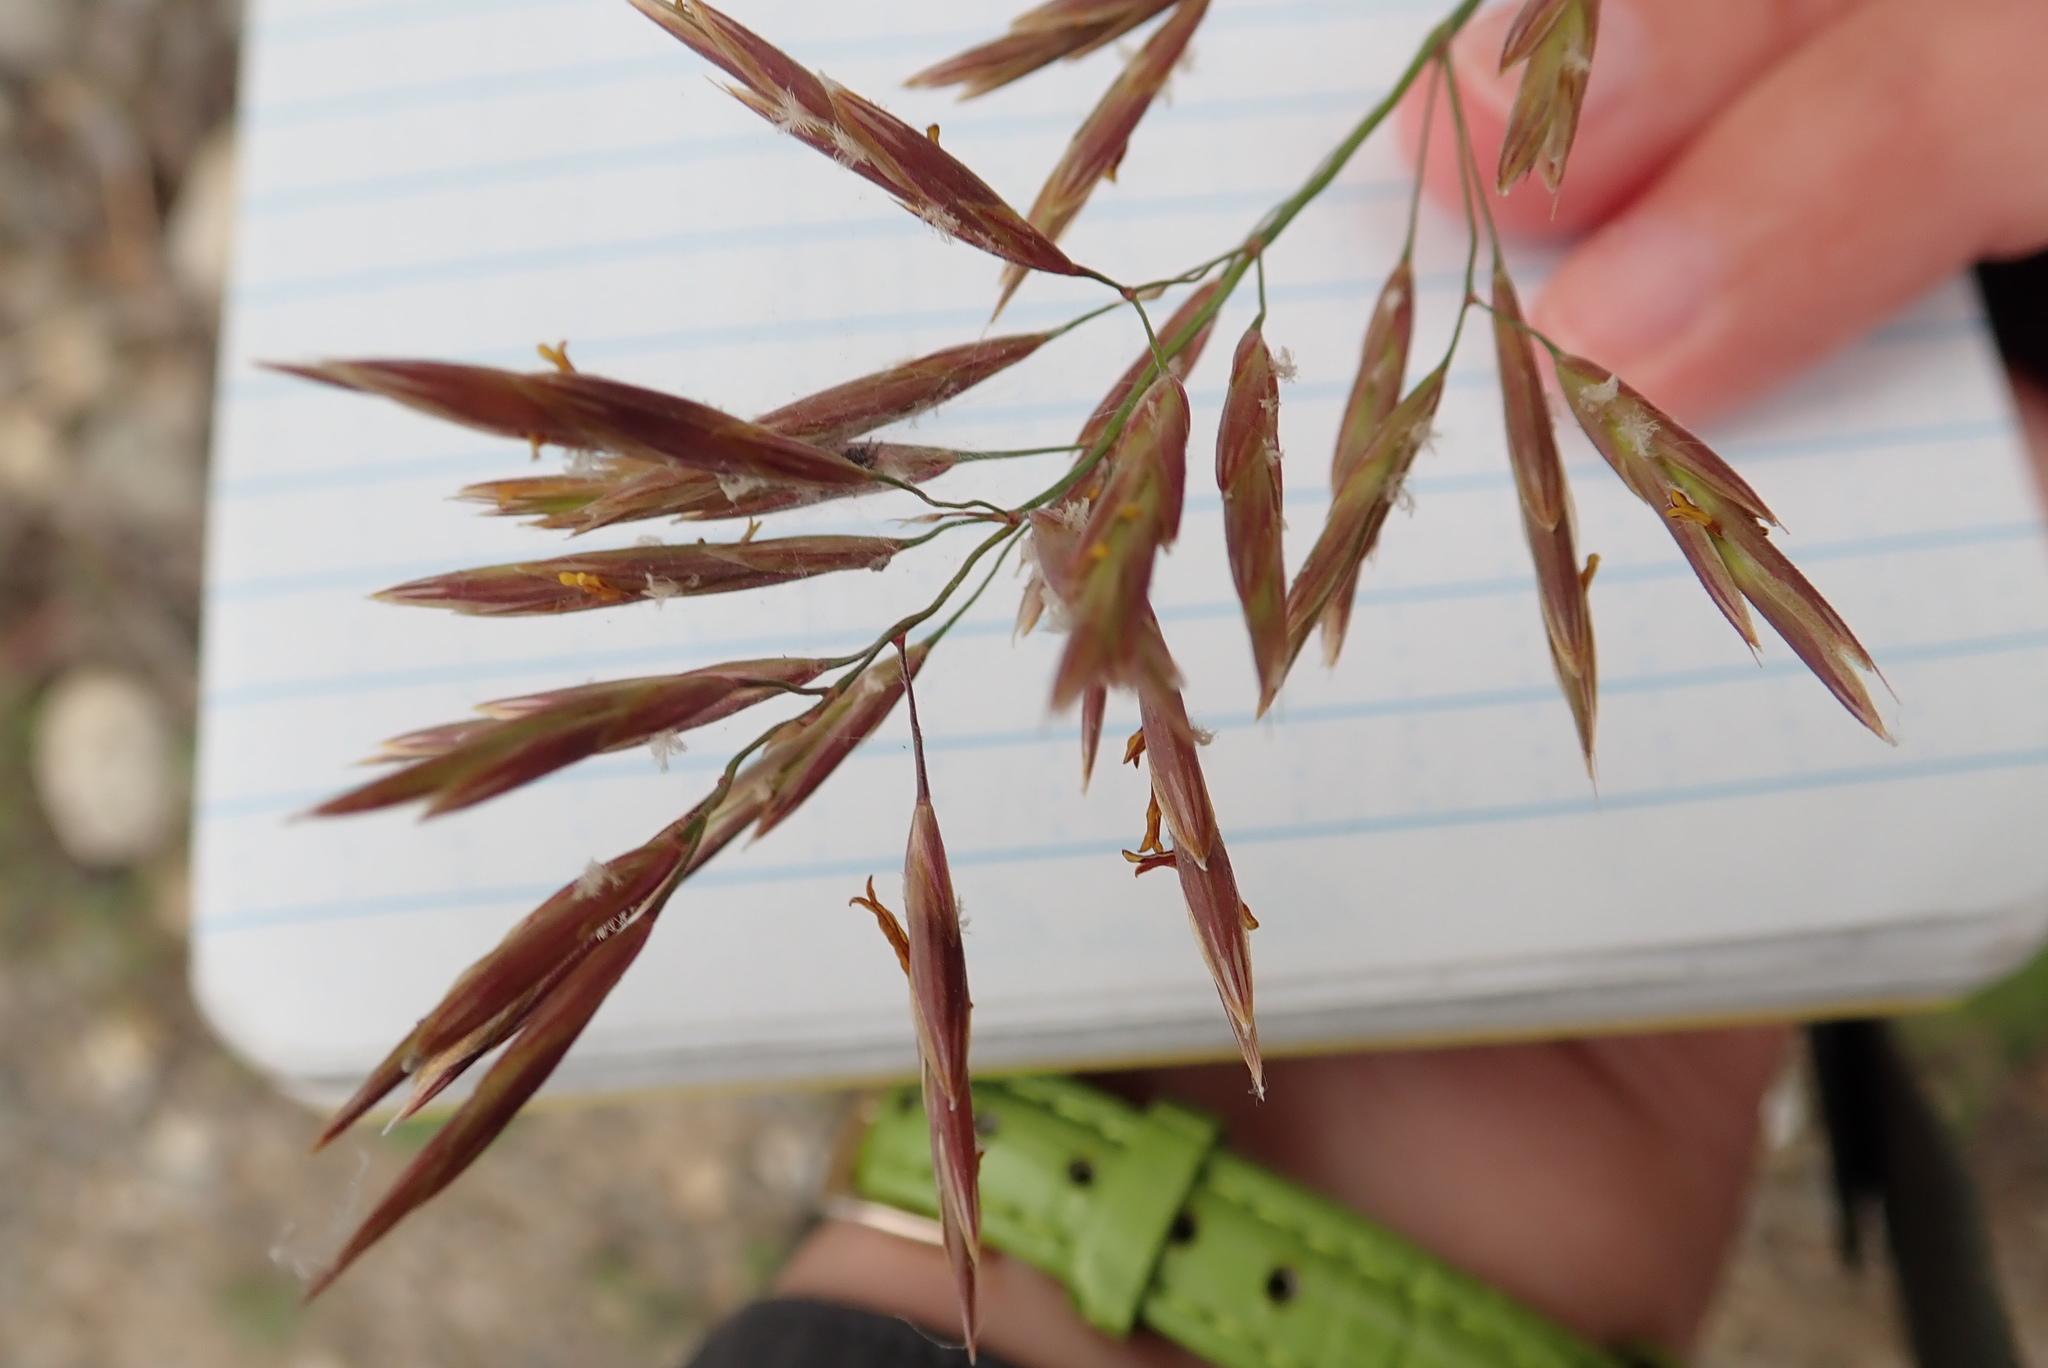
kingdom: Plantae
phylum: Tracheophyta
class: Liliopsida
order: Poales
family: Poaceae
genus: Bromus
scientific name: Bromus inermis
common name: Smooth brome
